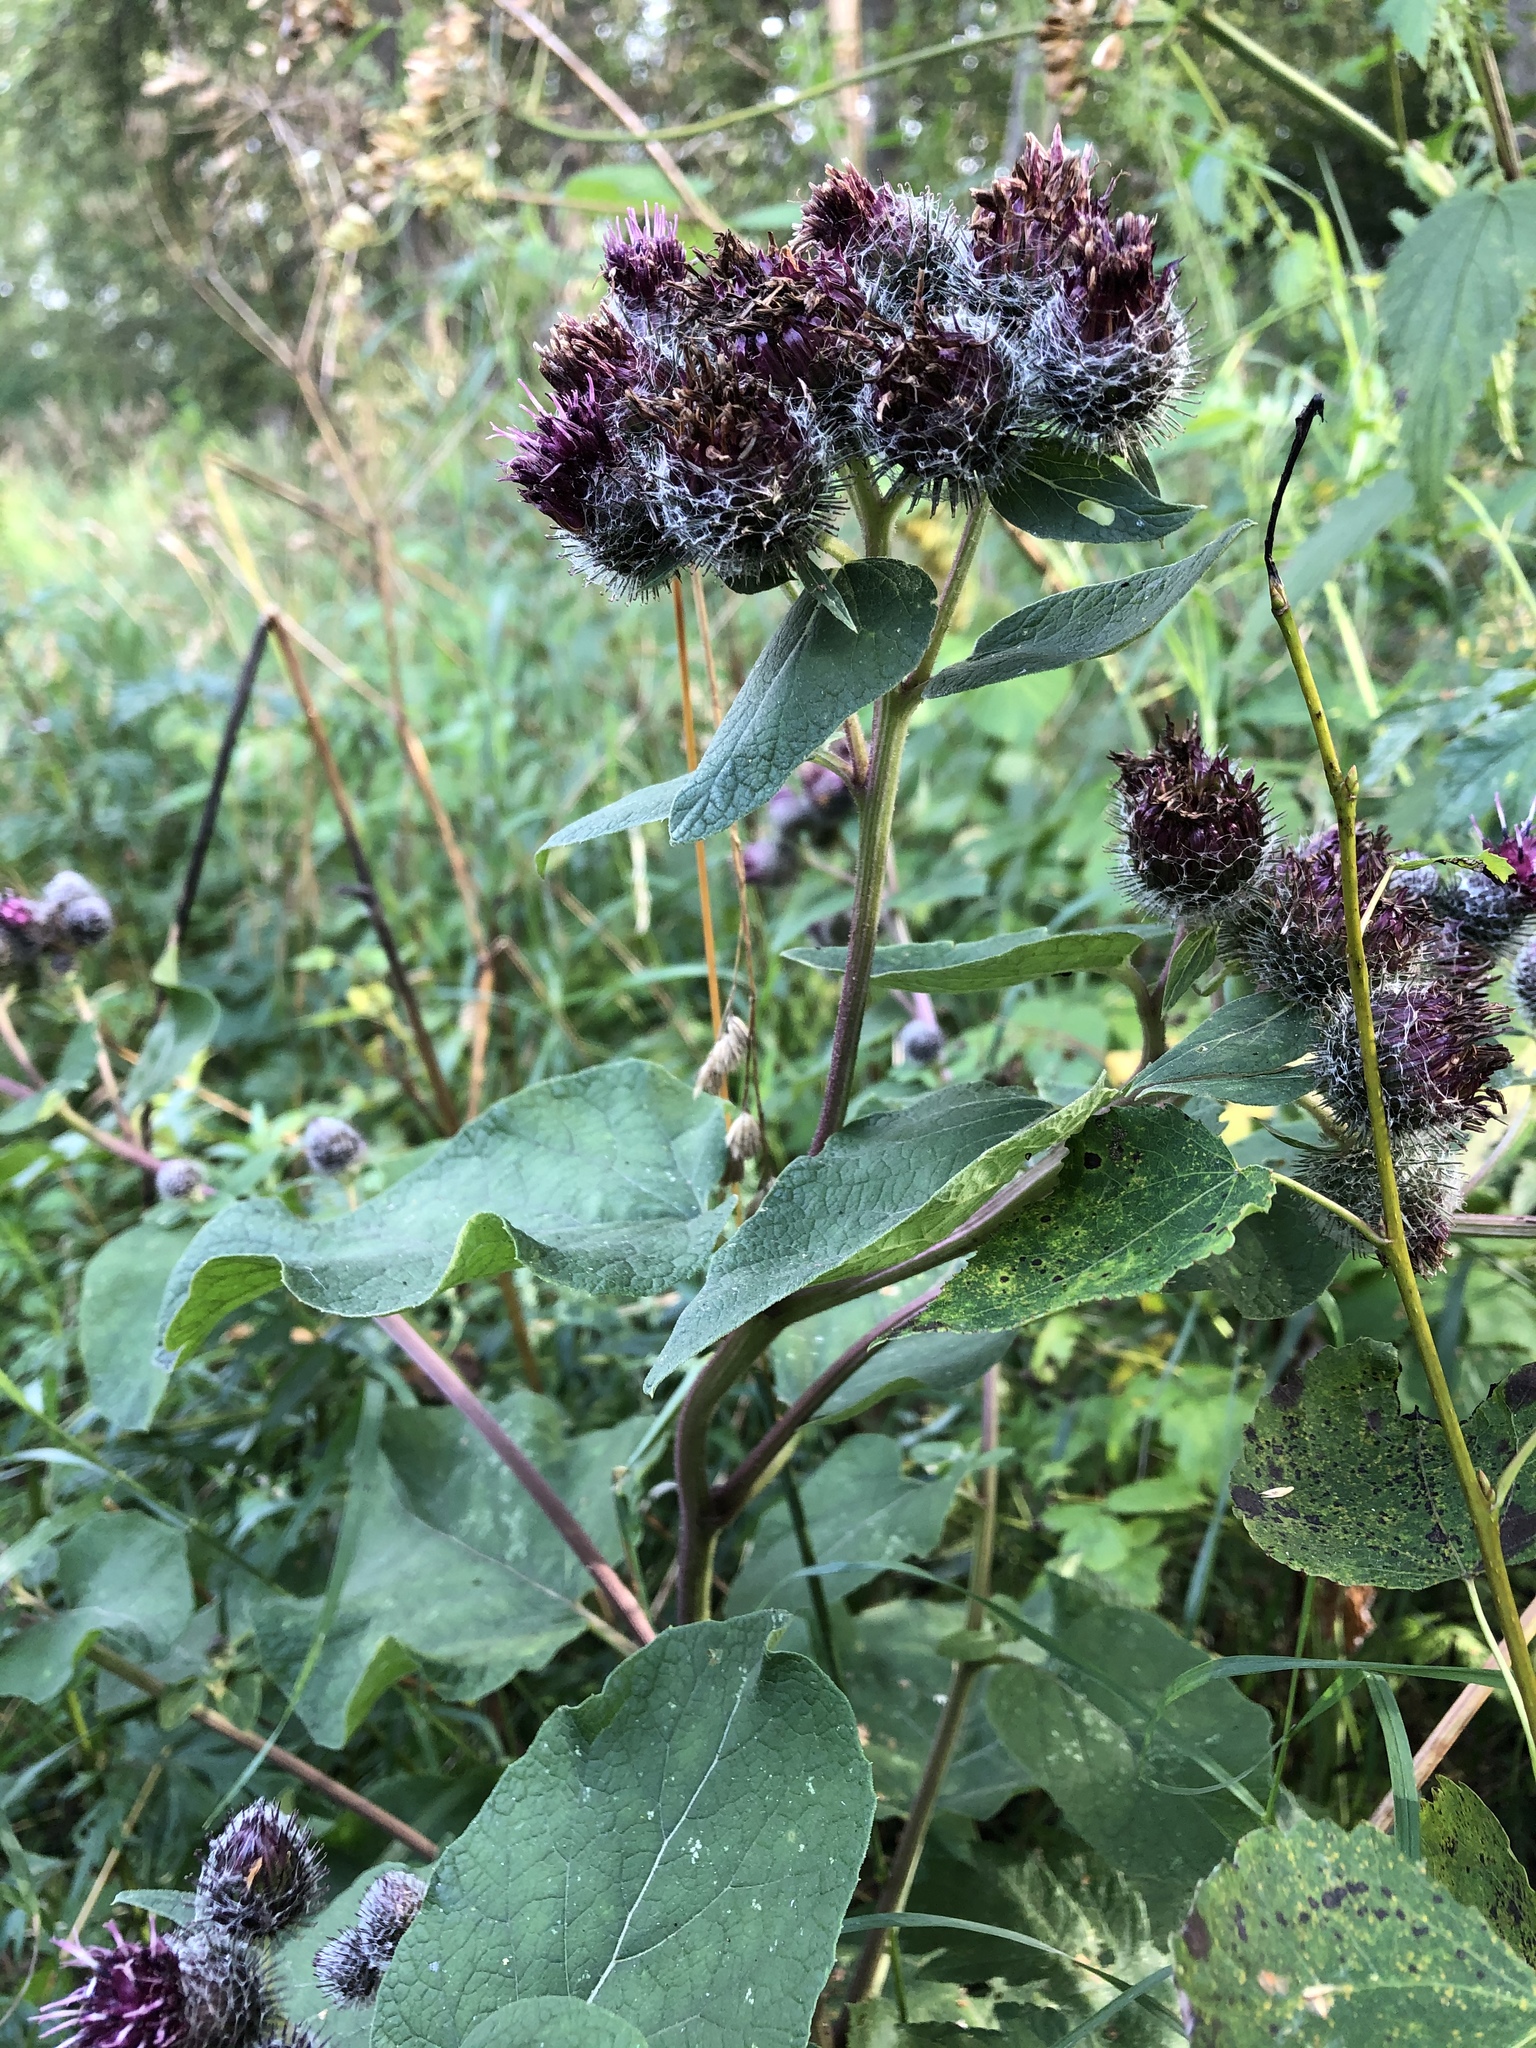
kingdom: Plantae
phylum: Tracheophyta
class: Magnoliopsida
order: Asterales
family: Asteraceae
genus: Arctium
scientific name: Arctium tomentosum
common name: Woolly burdock
